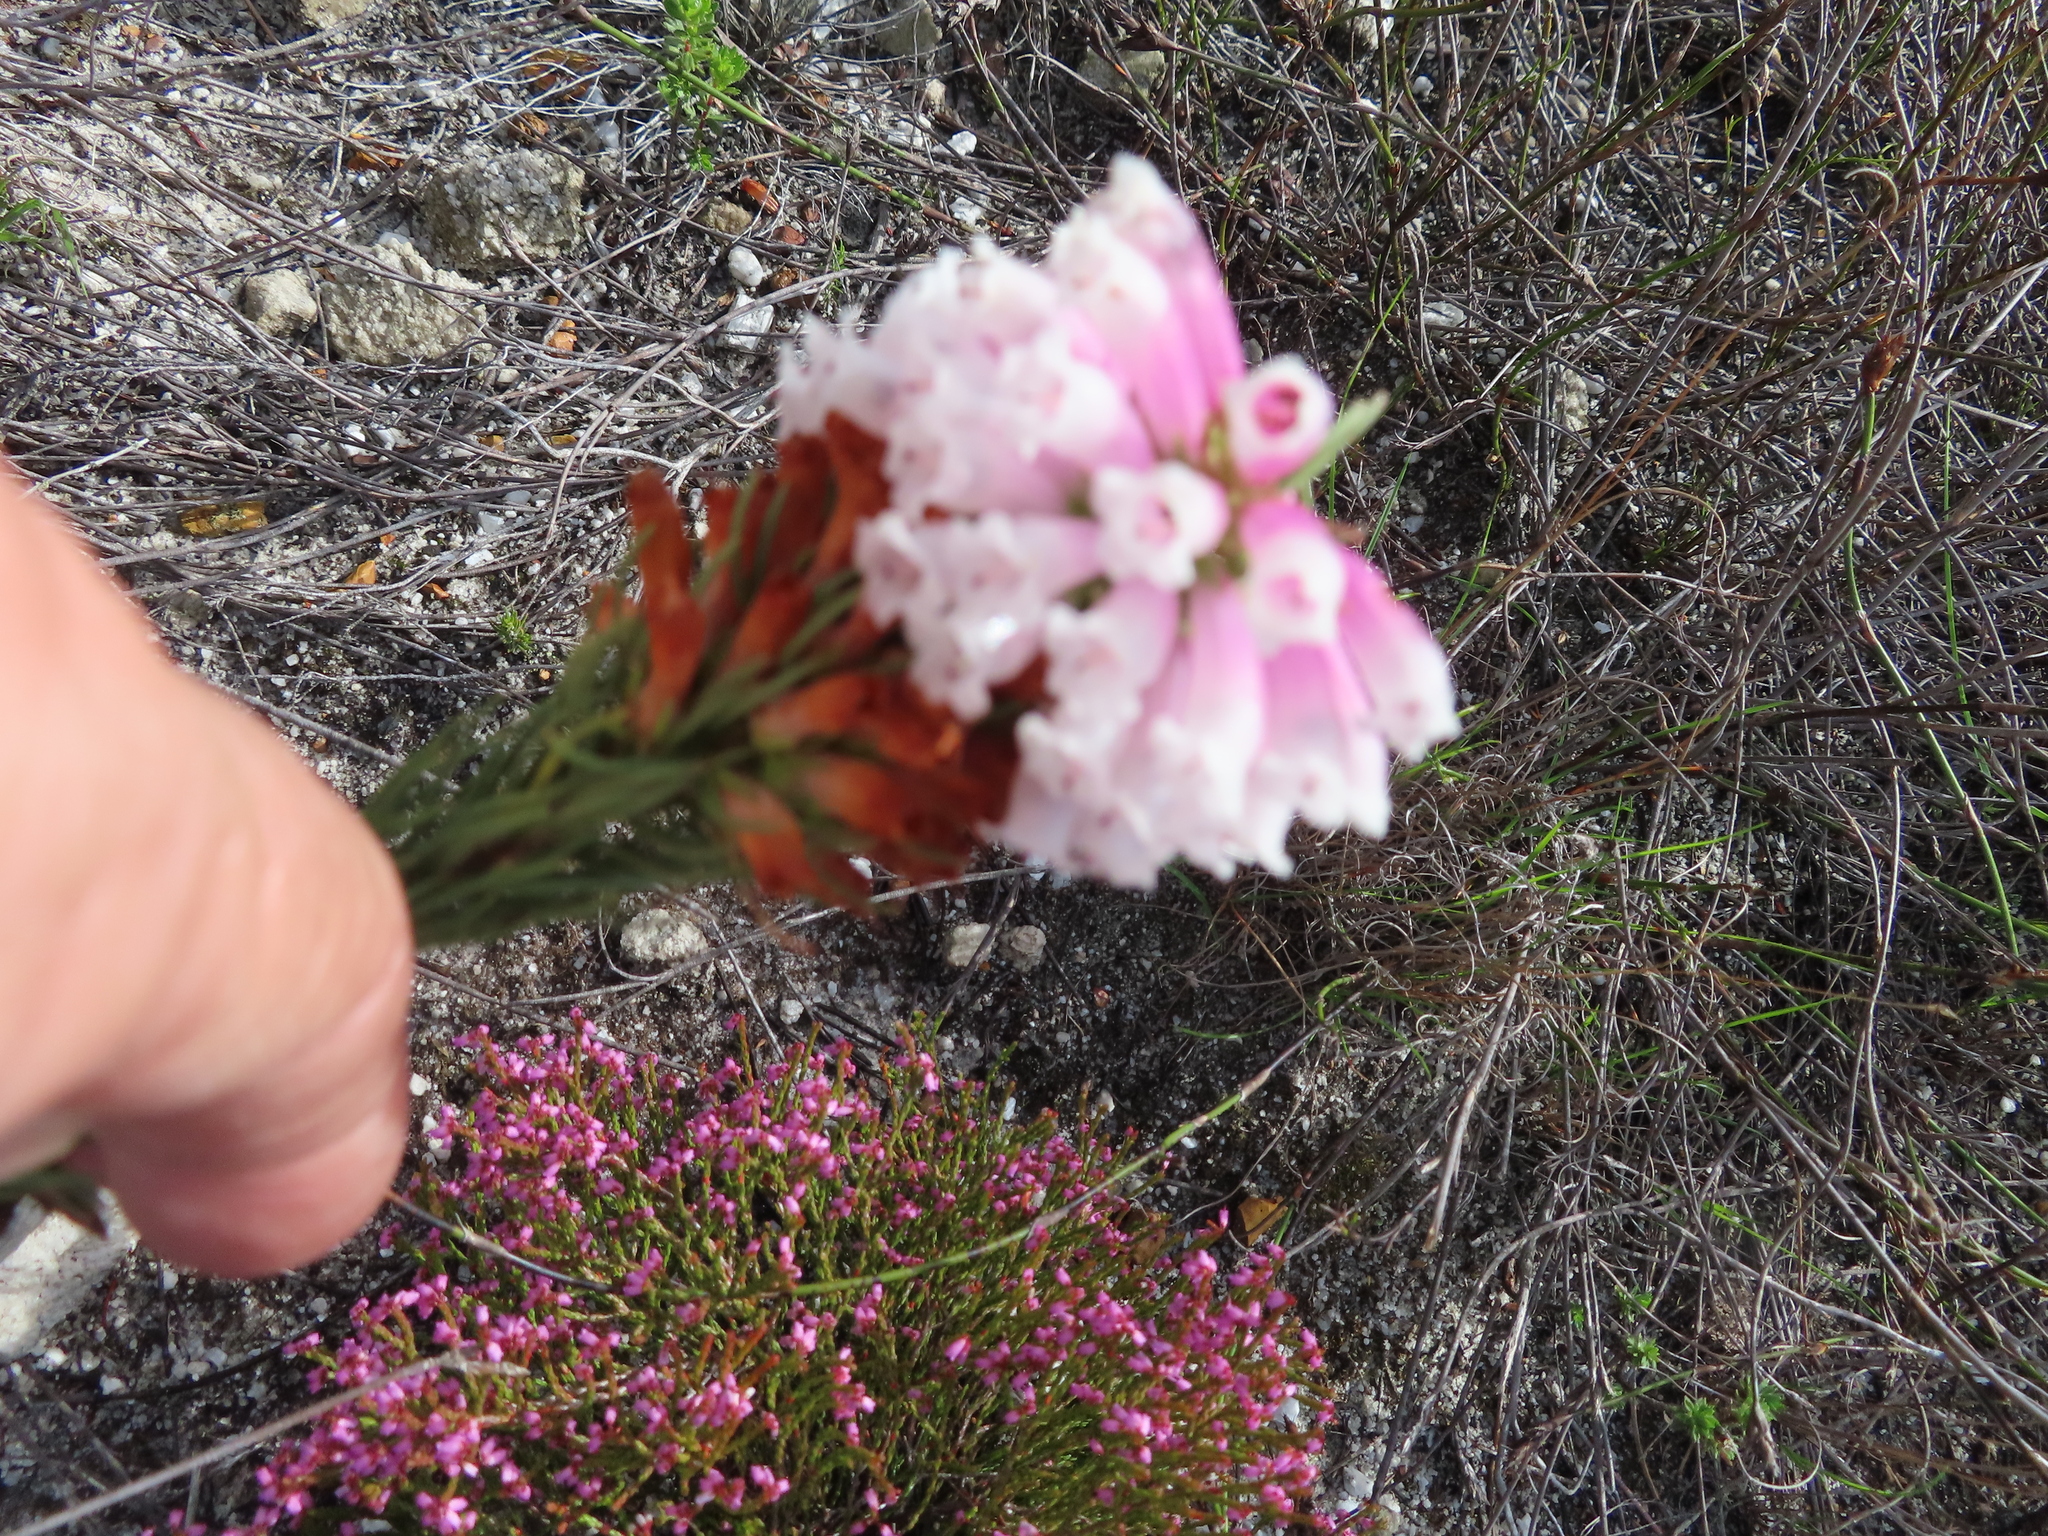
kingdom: Plantae
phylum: Tracheophyta
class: Magnoliopsida
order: Ericales
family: Ericaceae
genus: Erica
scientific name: Erica viscaria
